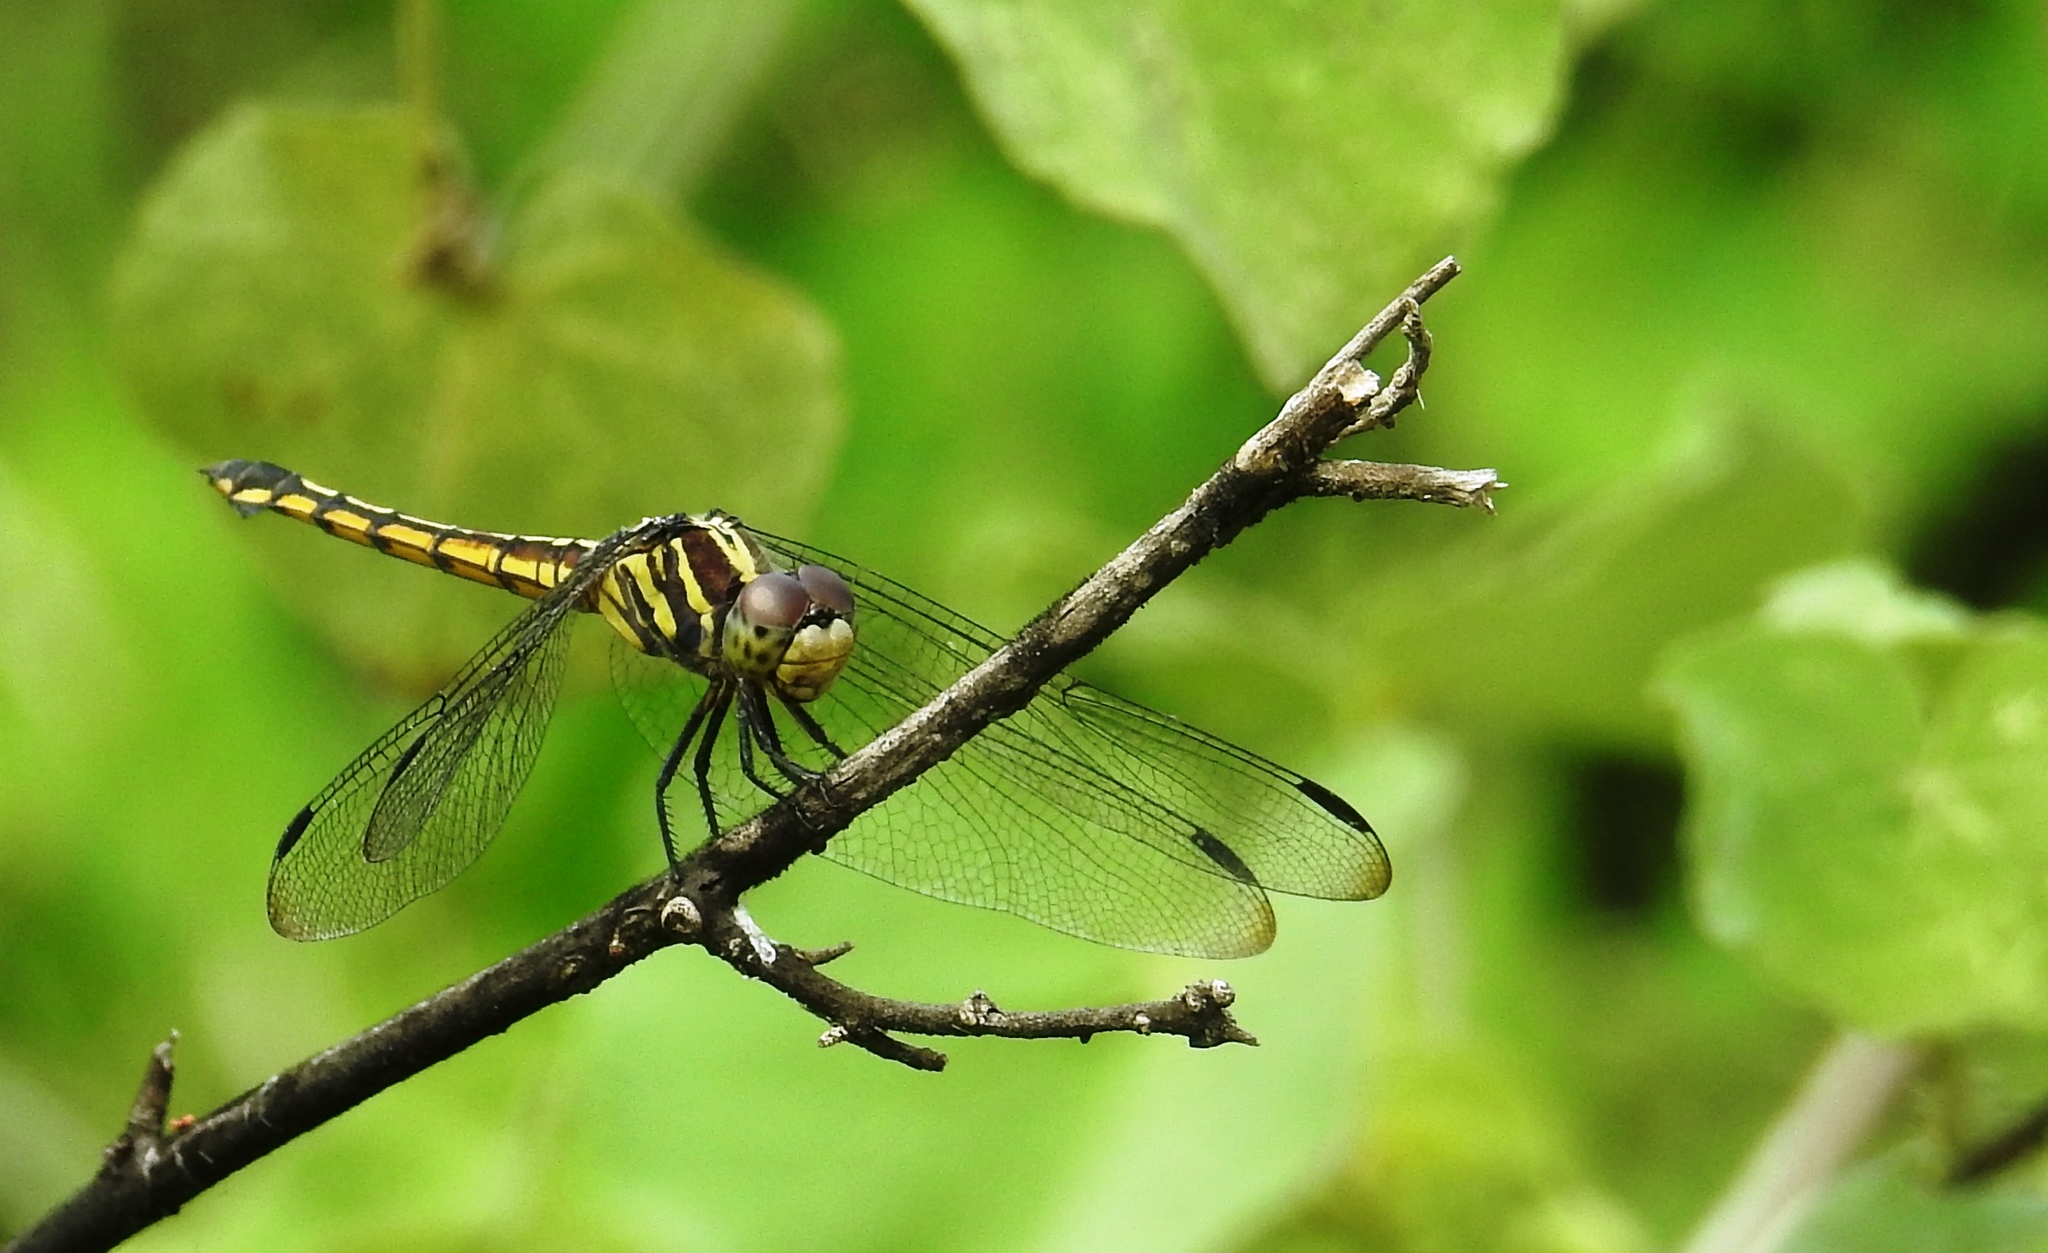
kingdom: Animalia
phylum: Arthropoda
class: Insecta
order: Odonata
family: Libellulidae
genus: Potamarcha
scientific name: Potamarcha congener
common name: Blue chaser
